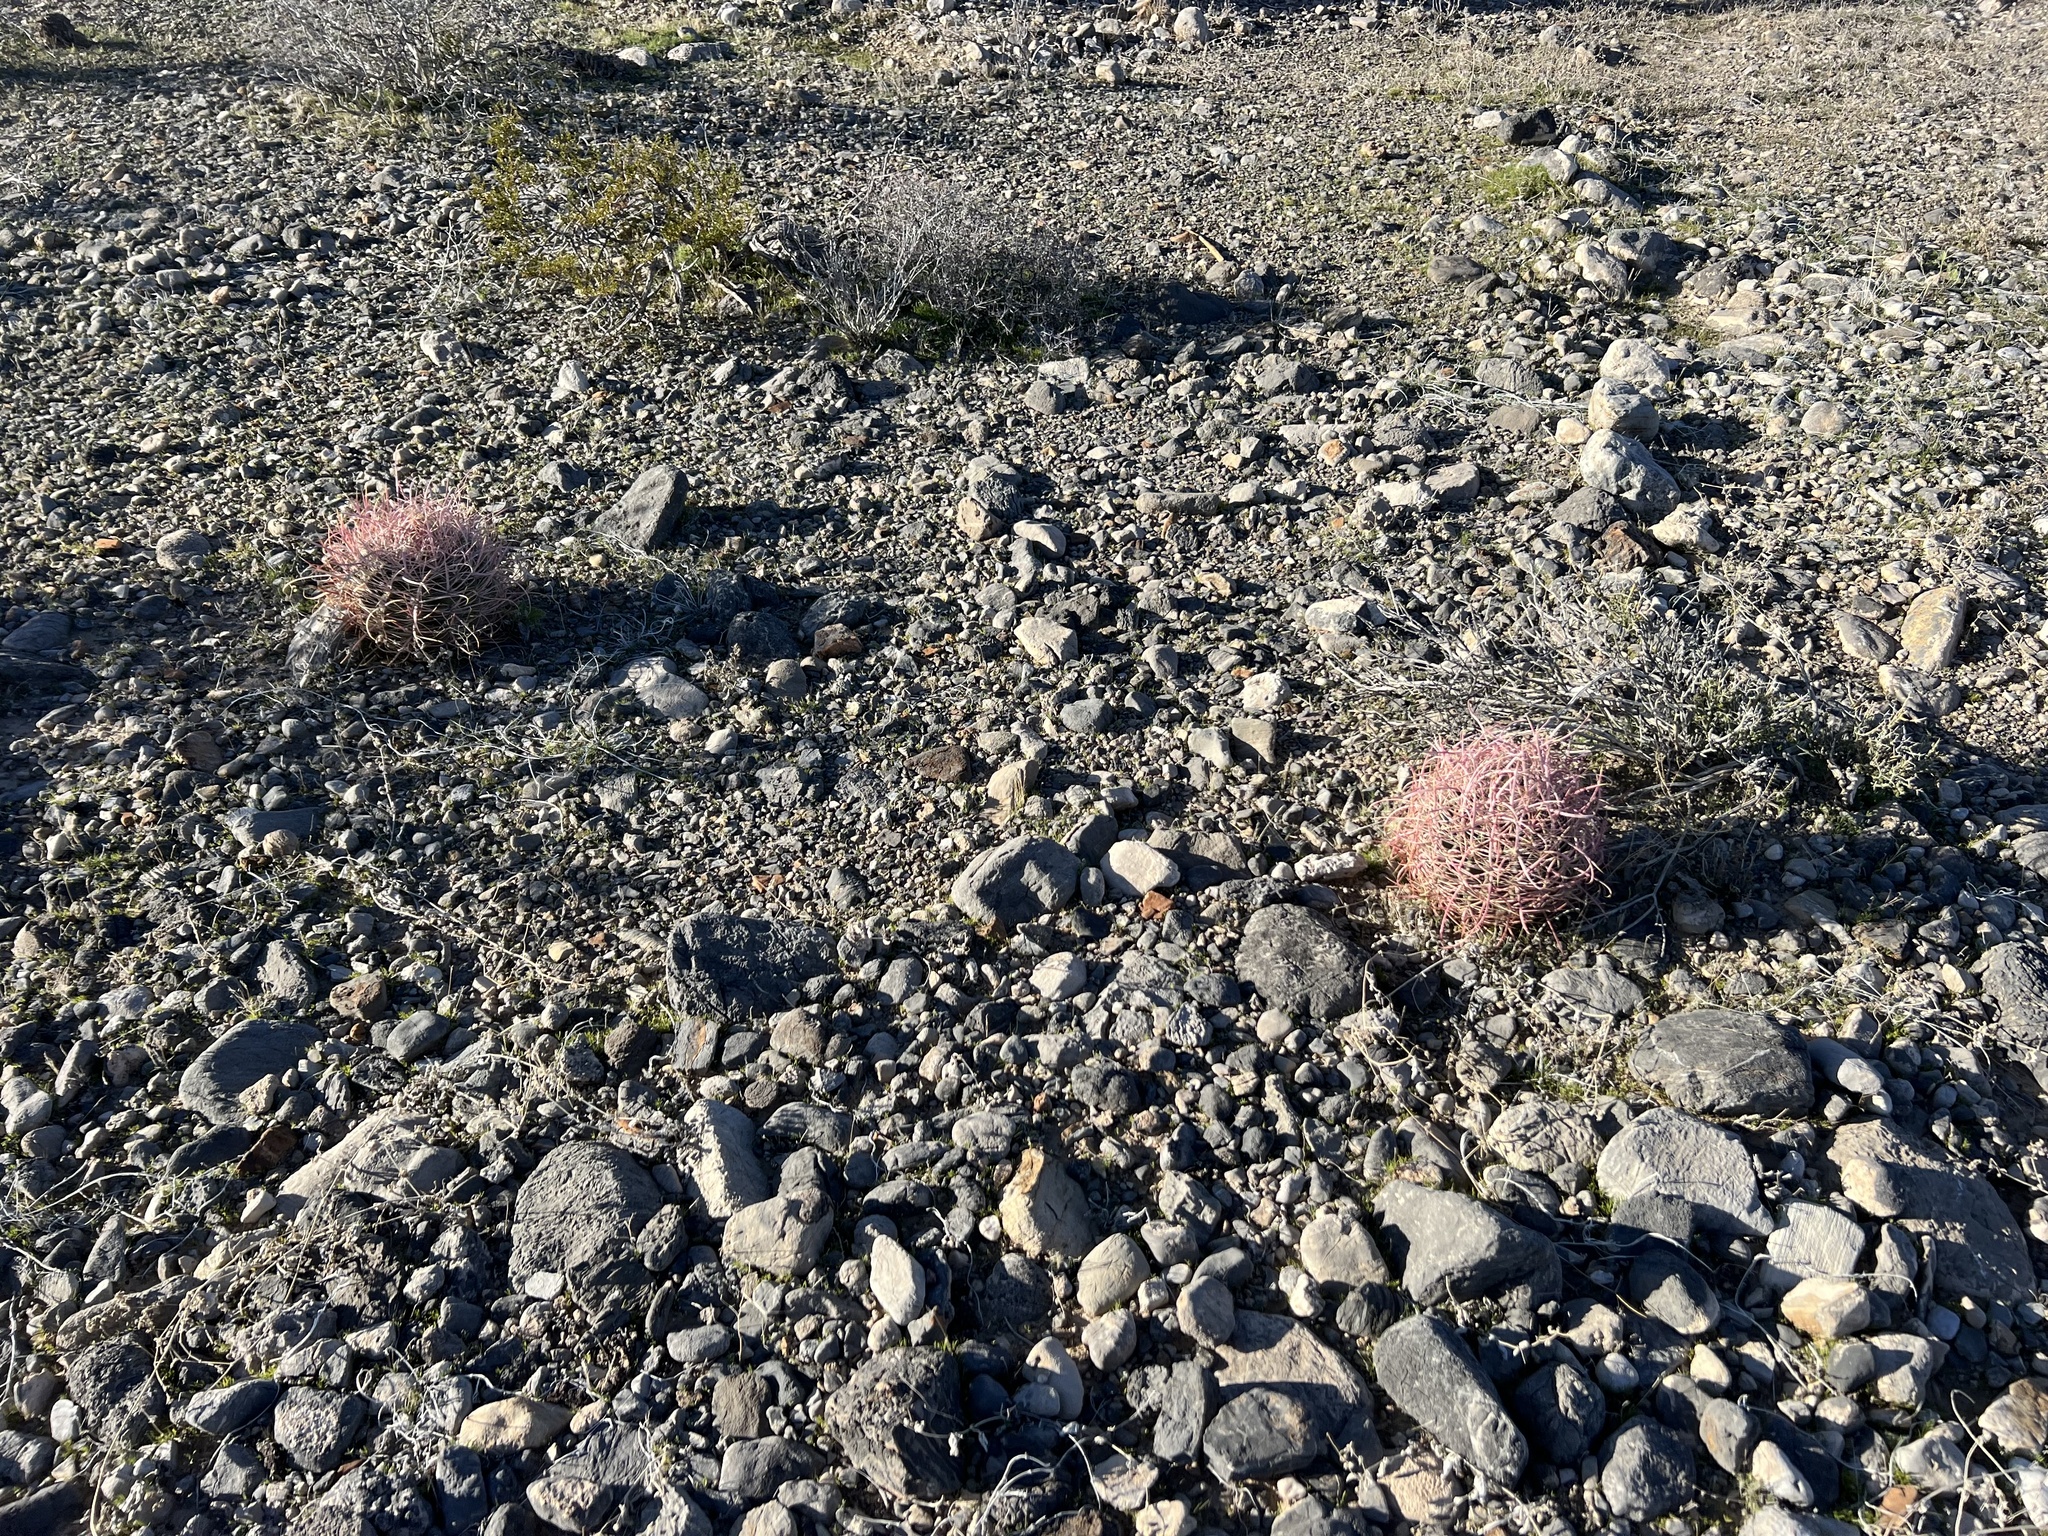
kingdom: Plantae
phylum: Tracheophyta
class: Magnoliopsida
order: Caryophyllales
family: Cactaceae
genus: Ferocactus
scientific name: Ferocactus cylindraceus
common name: California barrel cactus
